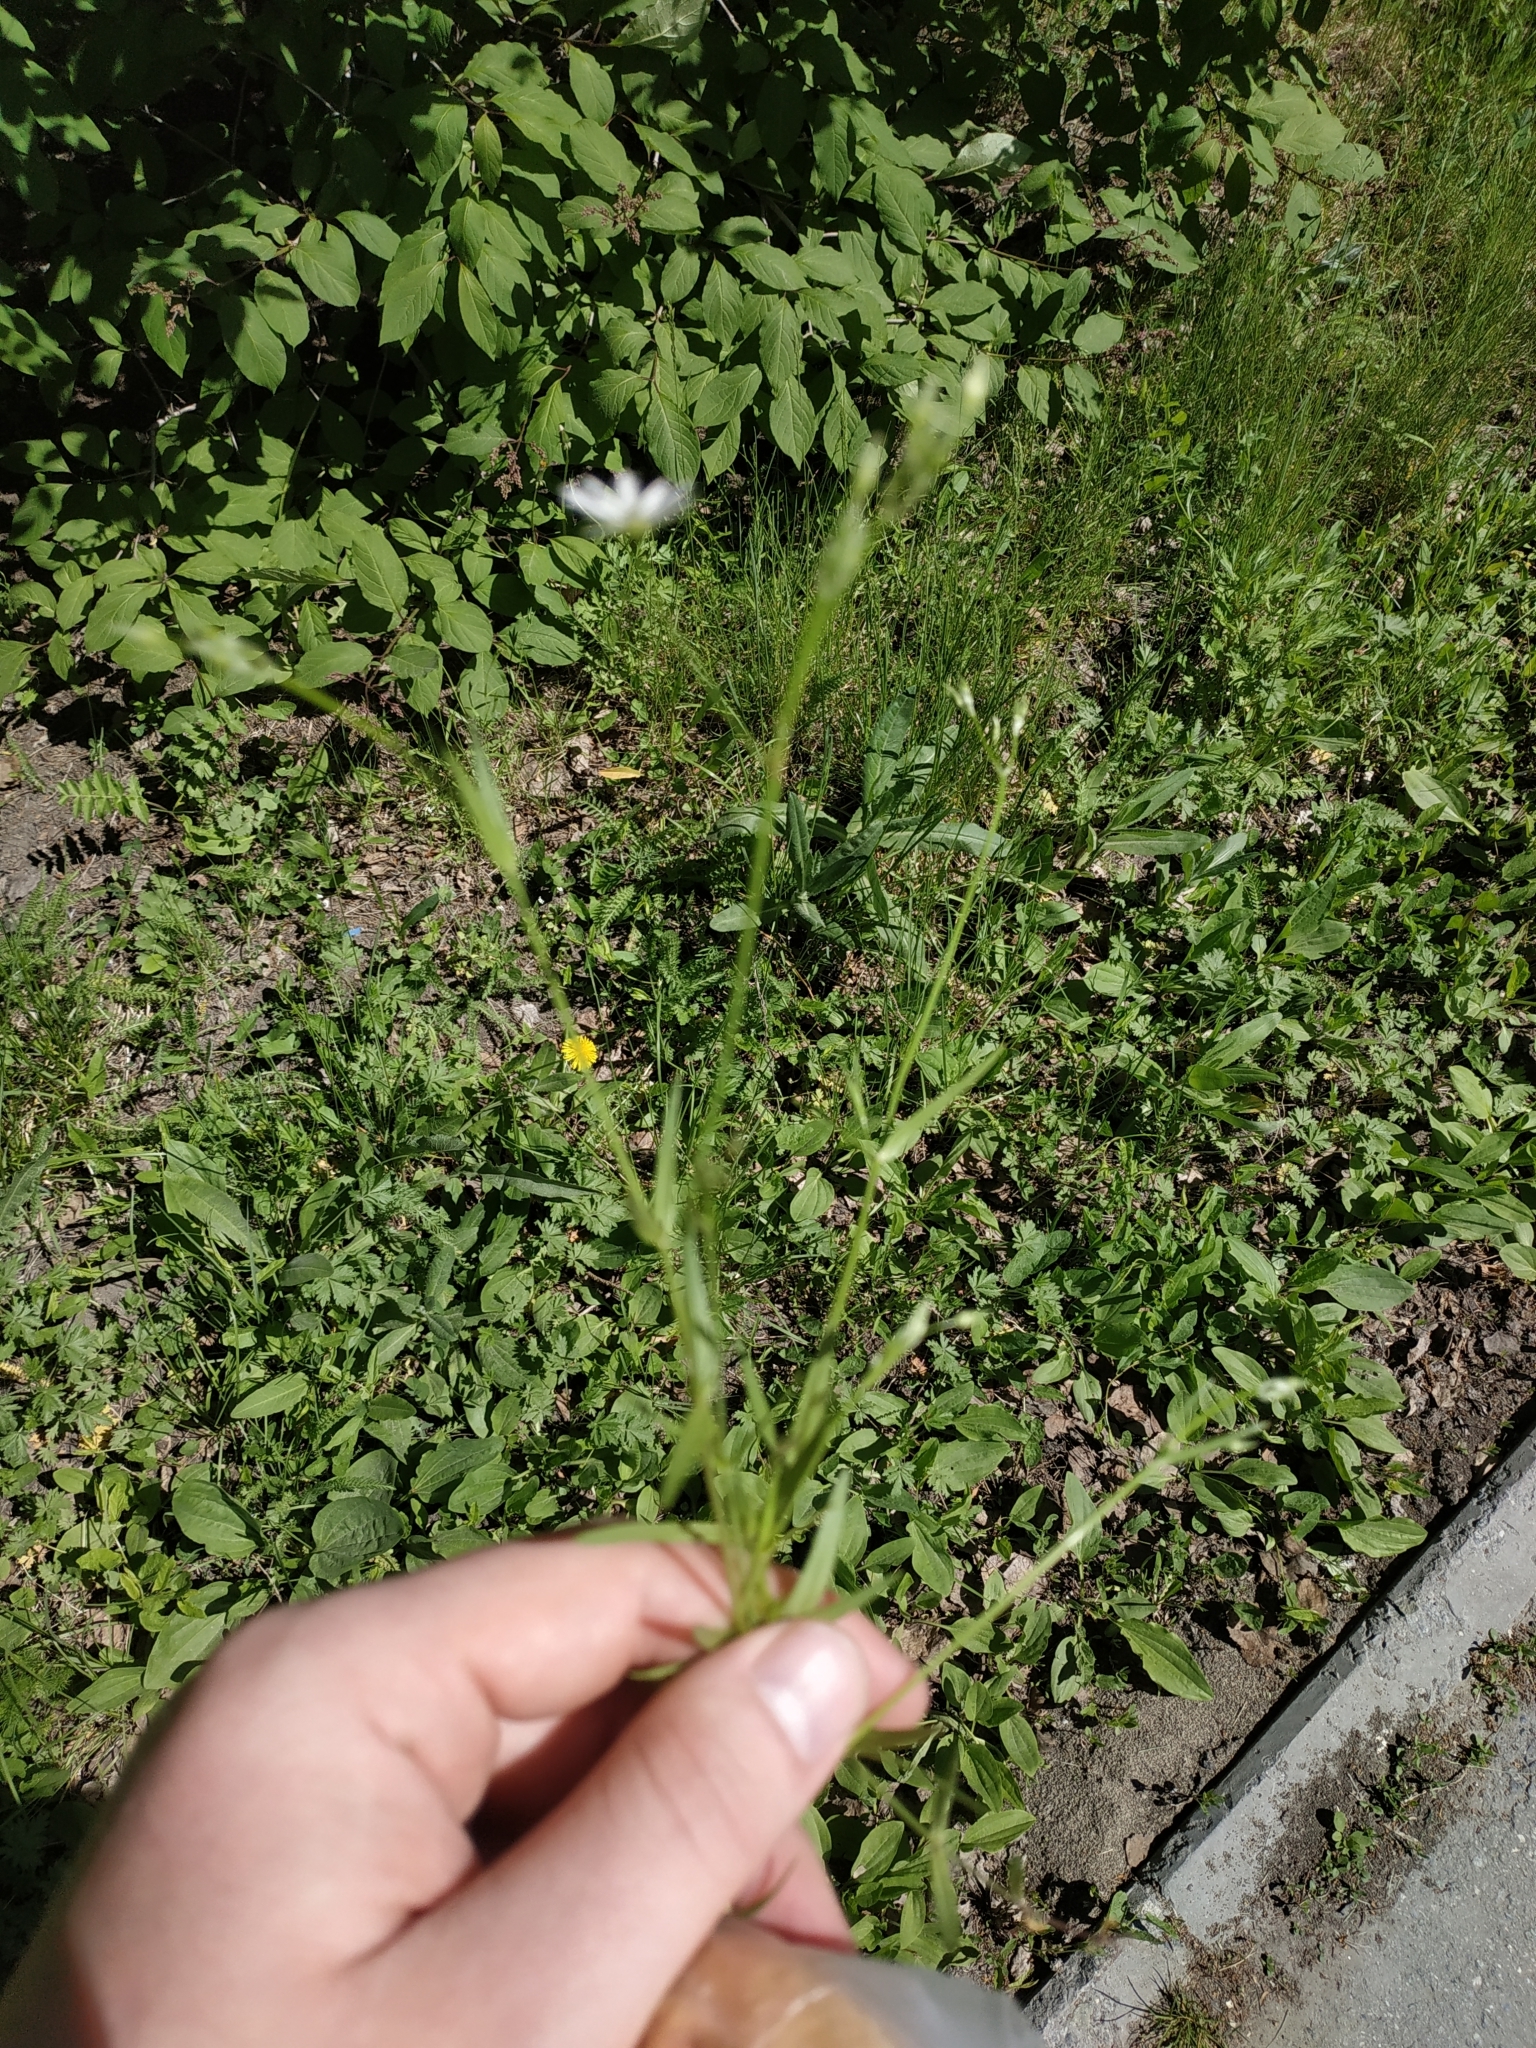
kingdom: Plantae
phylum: Tracheophyta
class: Magnoliopsida
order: Caryophyllales
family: Caryophyllaceae
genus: Stellaria
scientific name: Stellaria graminea
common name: Grass-like starwort
